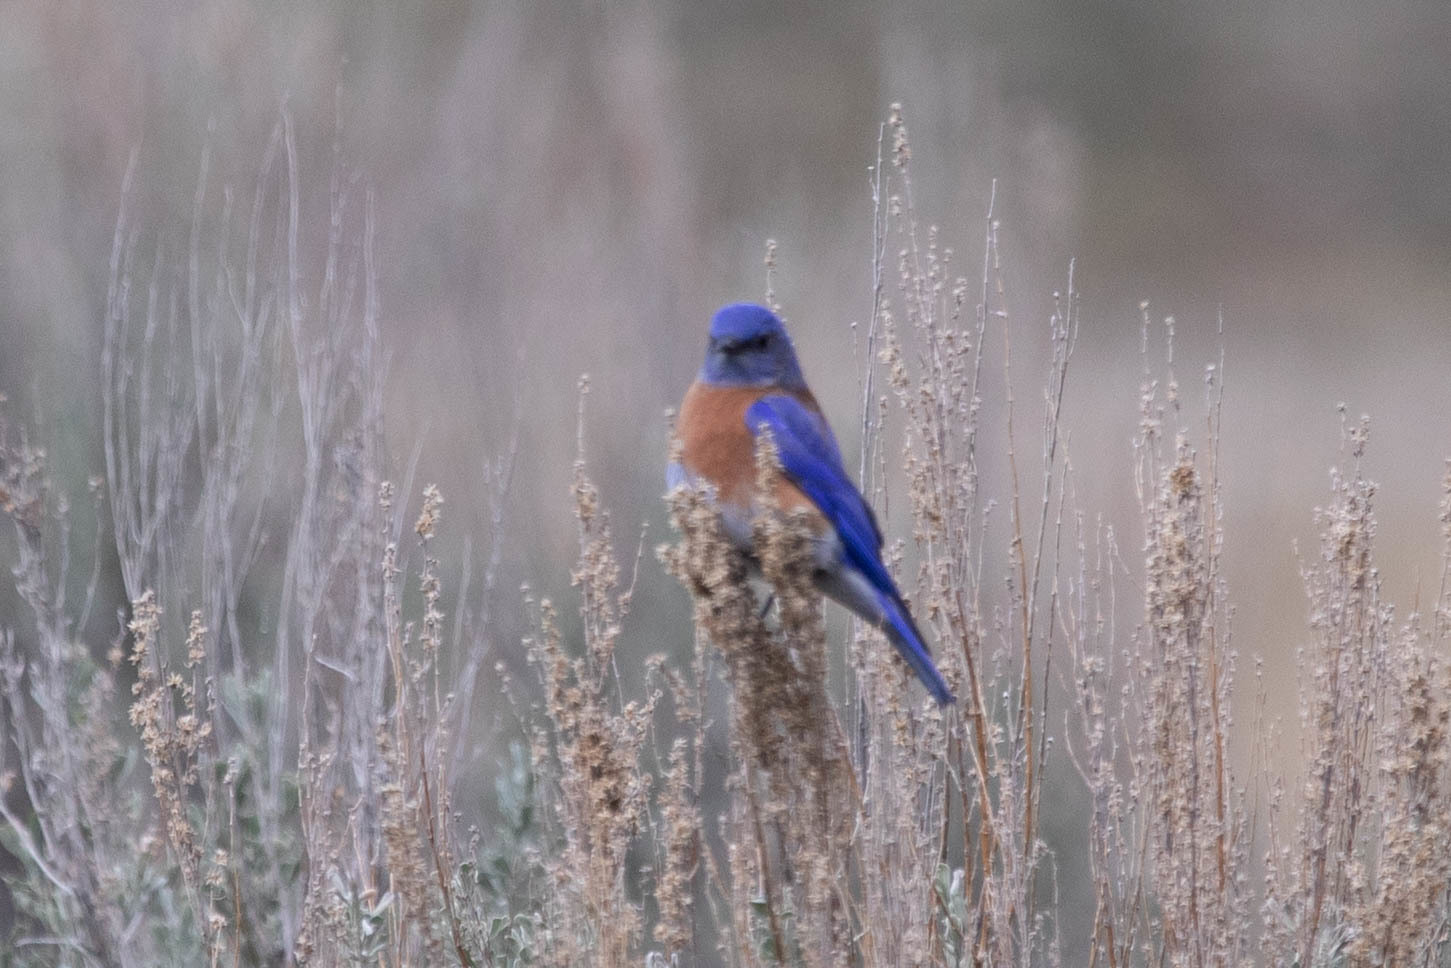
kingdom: Animalia
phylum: Chordata
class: Aves
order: Passeriformes
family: Turdidae
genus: Sialia
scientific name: Sialia mexicana
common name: Western bluebird
